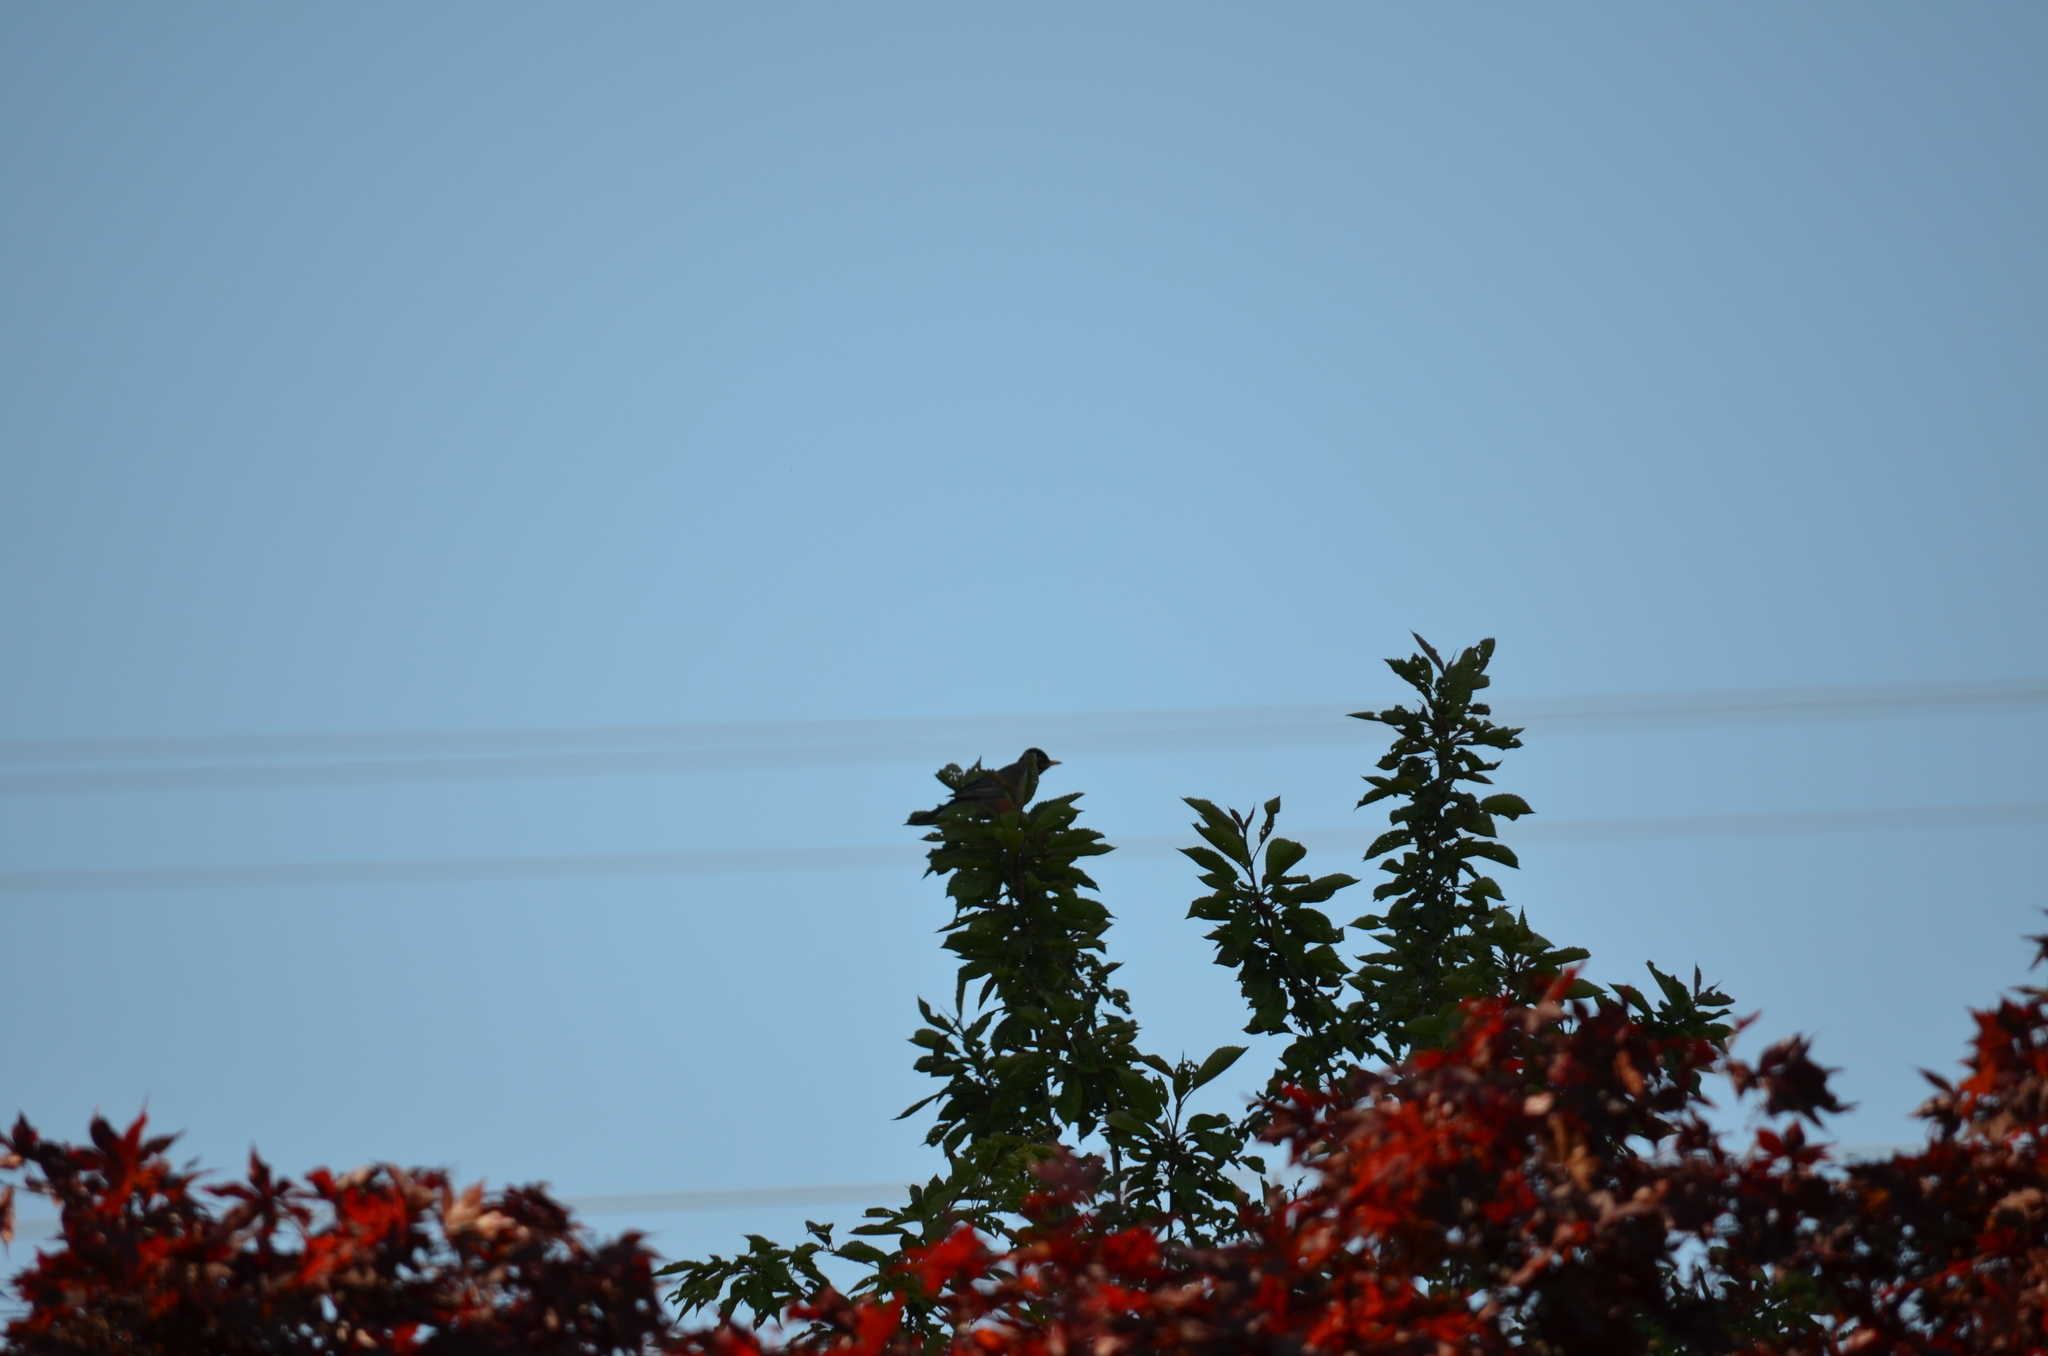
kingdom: Animalia
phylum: Chordata
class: Aves
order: Passeriformes
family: Turdidae
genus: Turdus
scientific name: Turdus migratorius
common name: American robin
